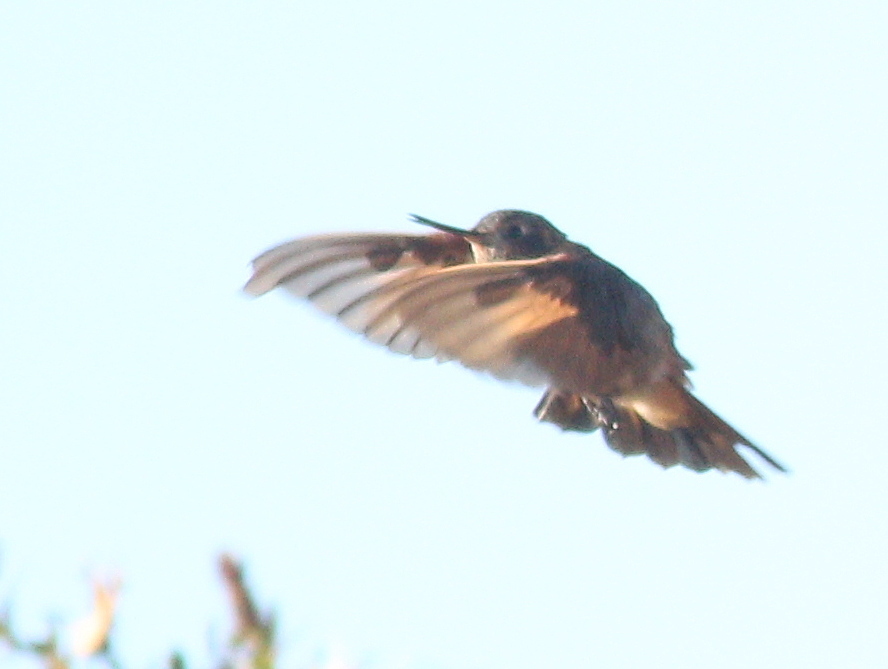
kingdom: Animalia
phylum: Chordata
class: Aves
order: Apodiformes
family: Trochilidae
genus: Aglaeactis
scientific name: Aglaeactis cupripennis
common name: Shining sunbeam
